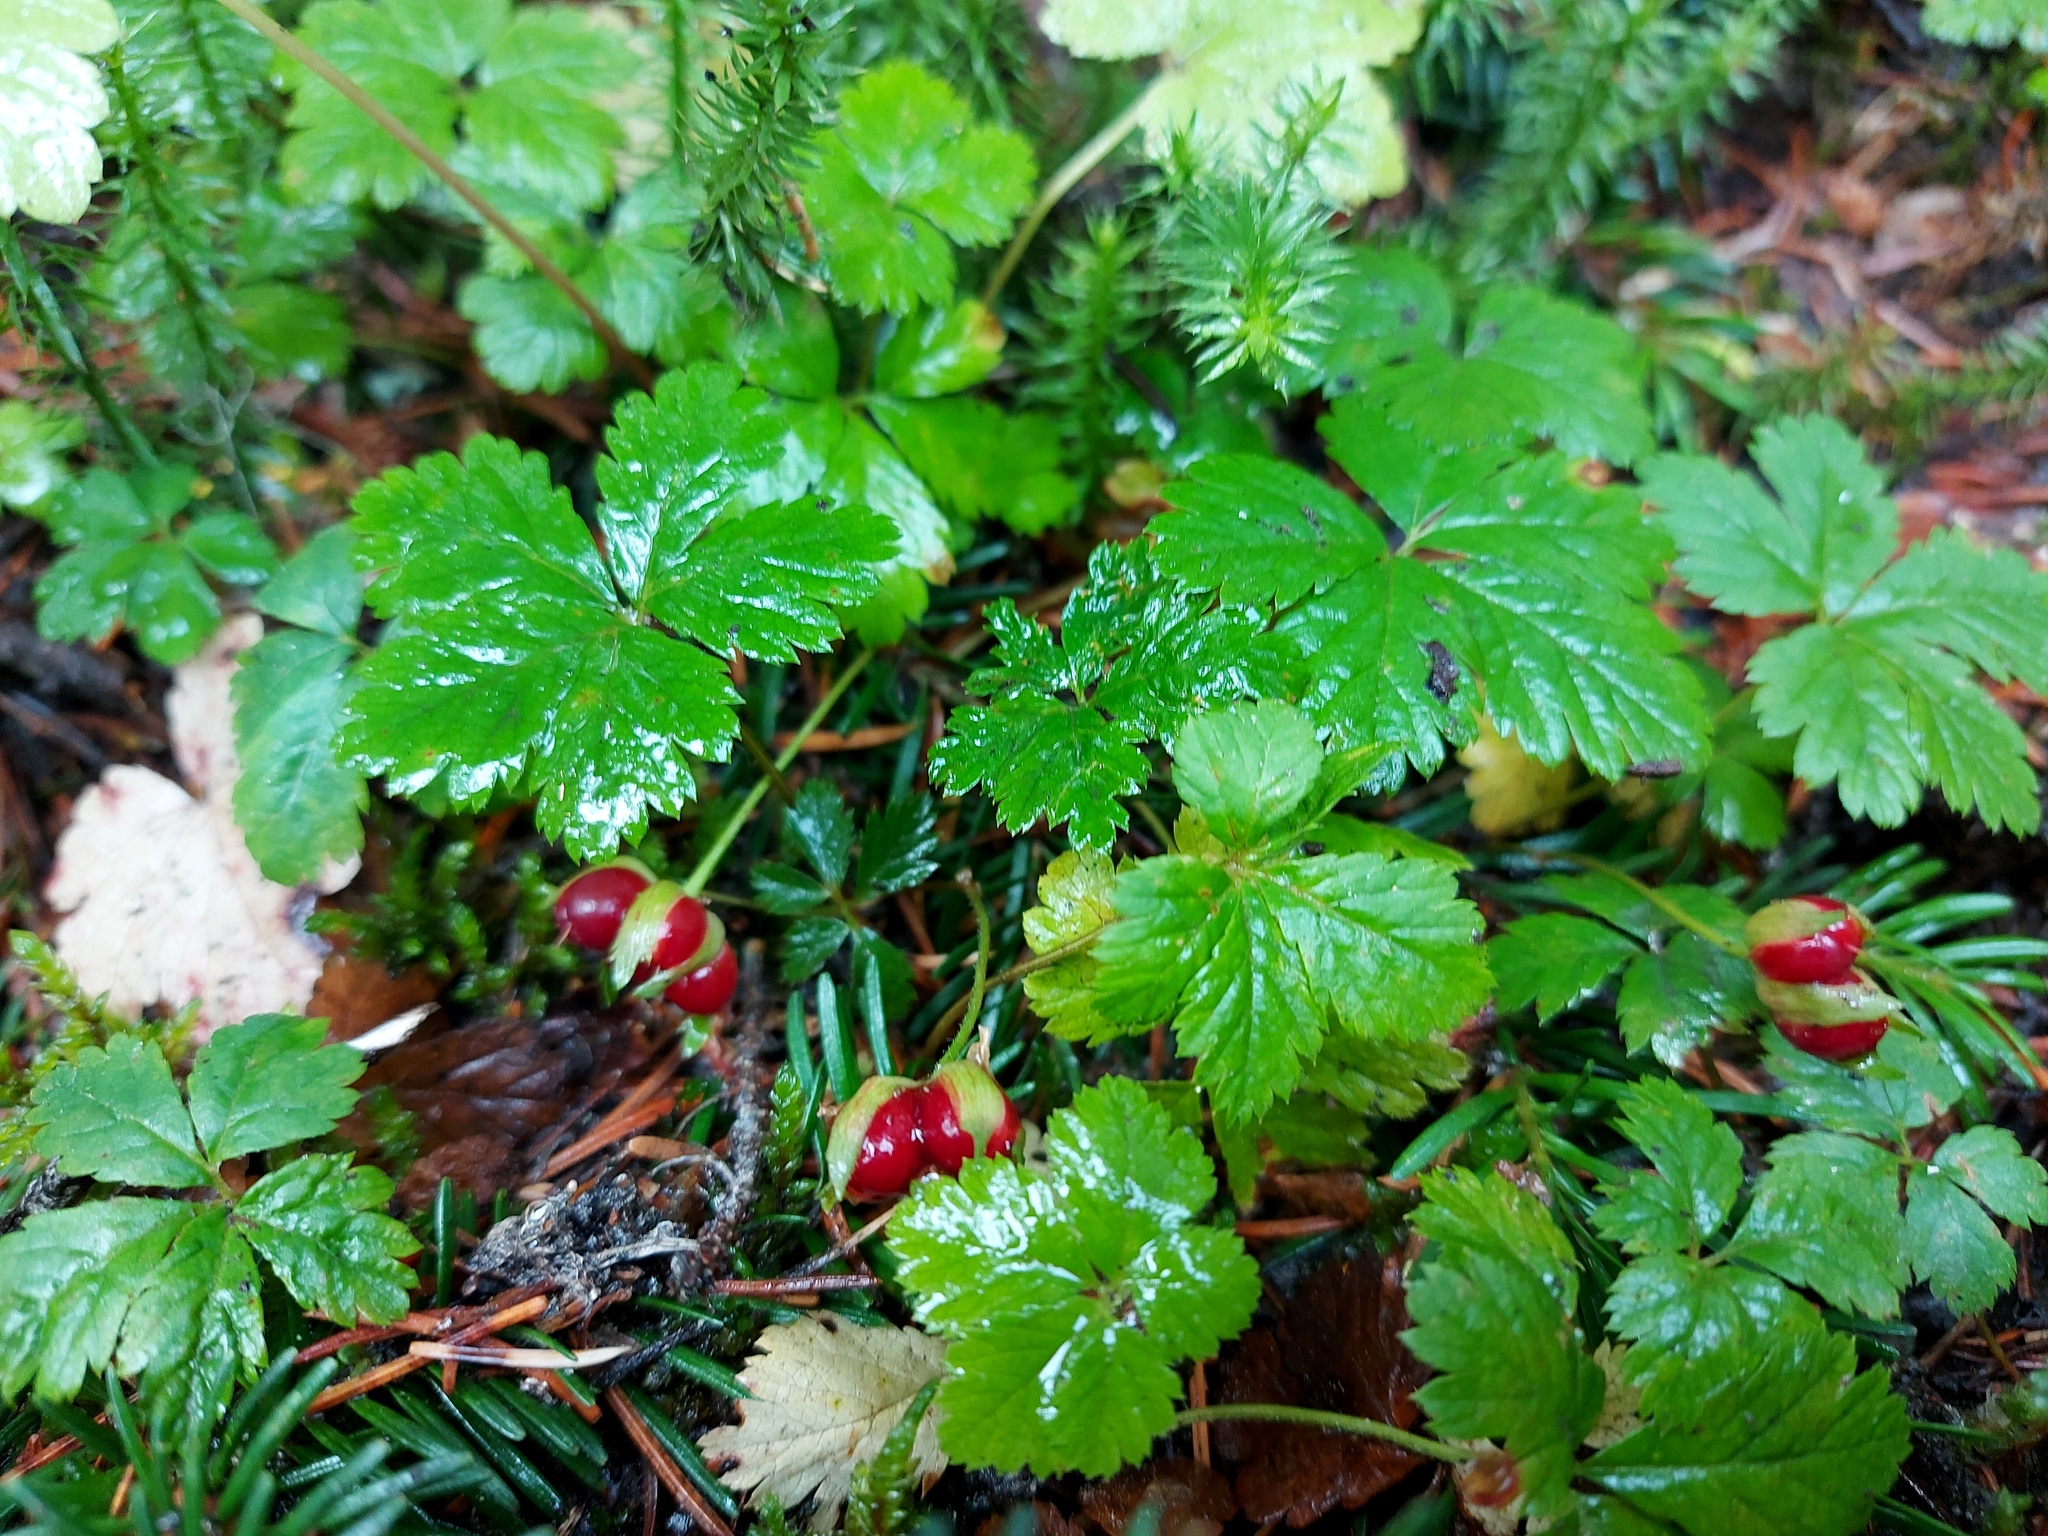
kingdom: Plantae
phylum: Tracheophyta
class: Magnoliopsida
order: Rosales
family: Rosaceae
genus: Rubus
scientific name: Rubus pedatus
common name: Creeping raspberry
